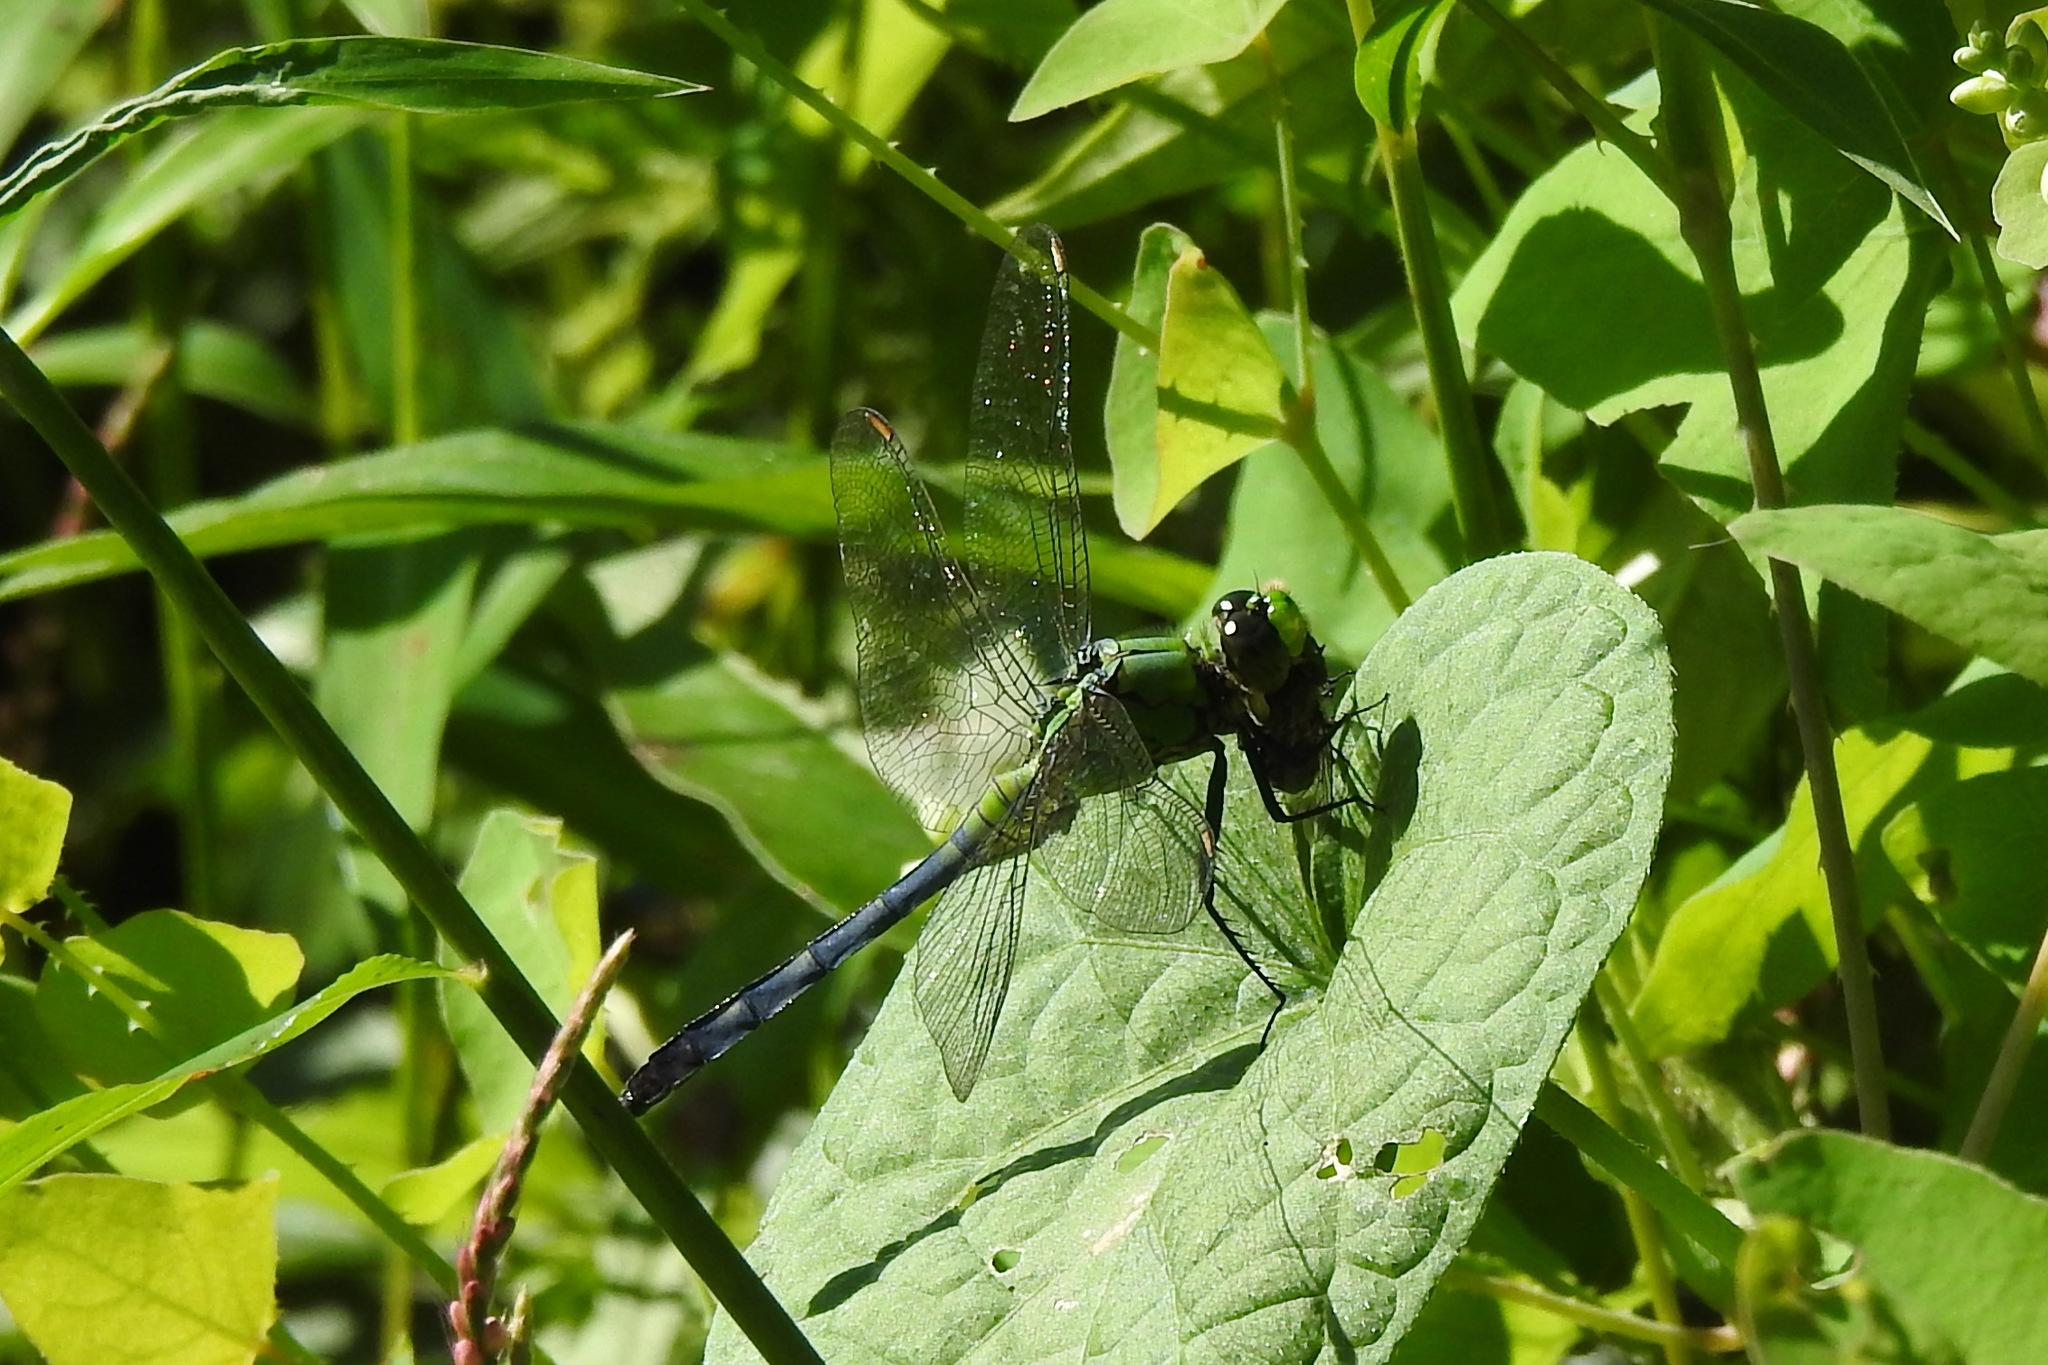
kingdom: Animalia
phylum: Arthropoda
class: Insecta
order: Odonata
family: Libellulidae
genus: Erythemis
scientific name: Erythemis simplicicollis
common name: Eastern pondhawk
